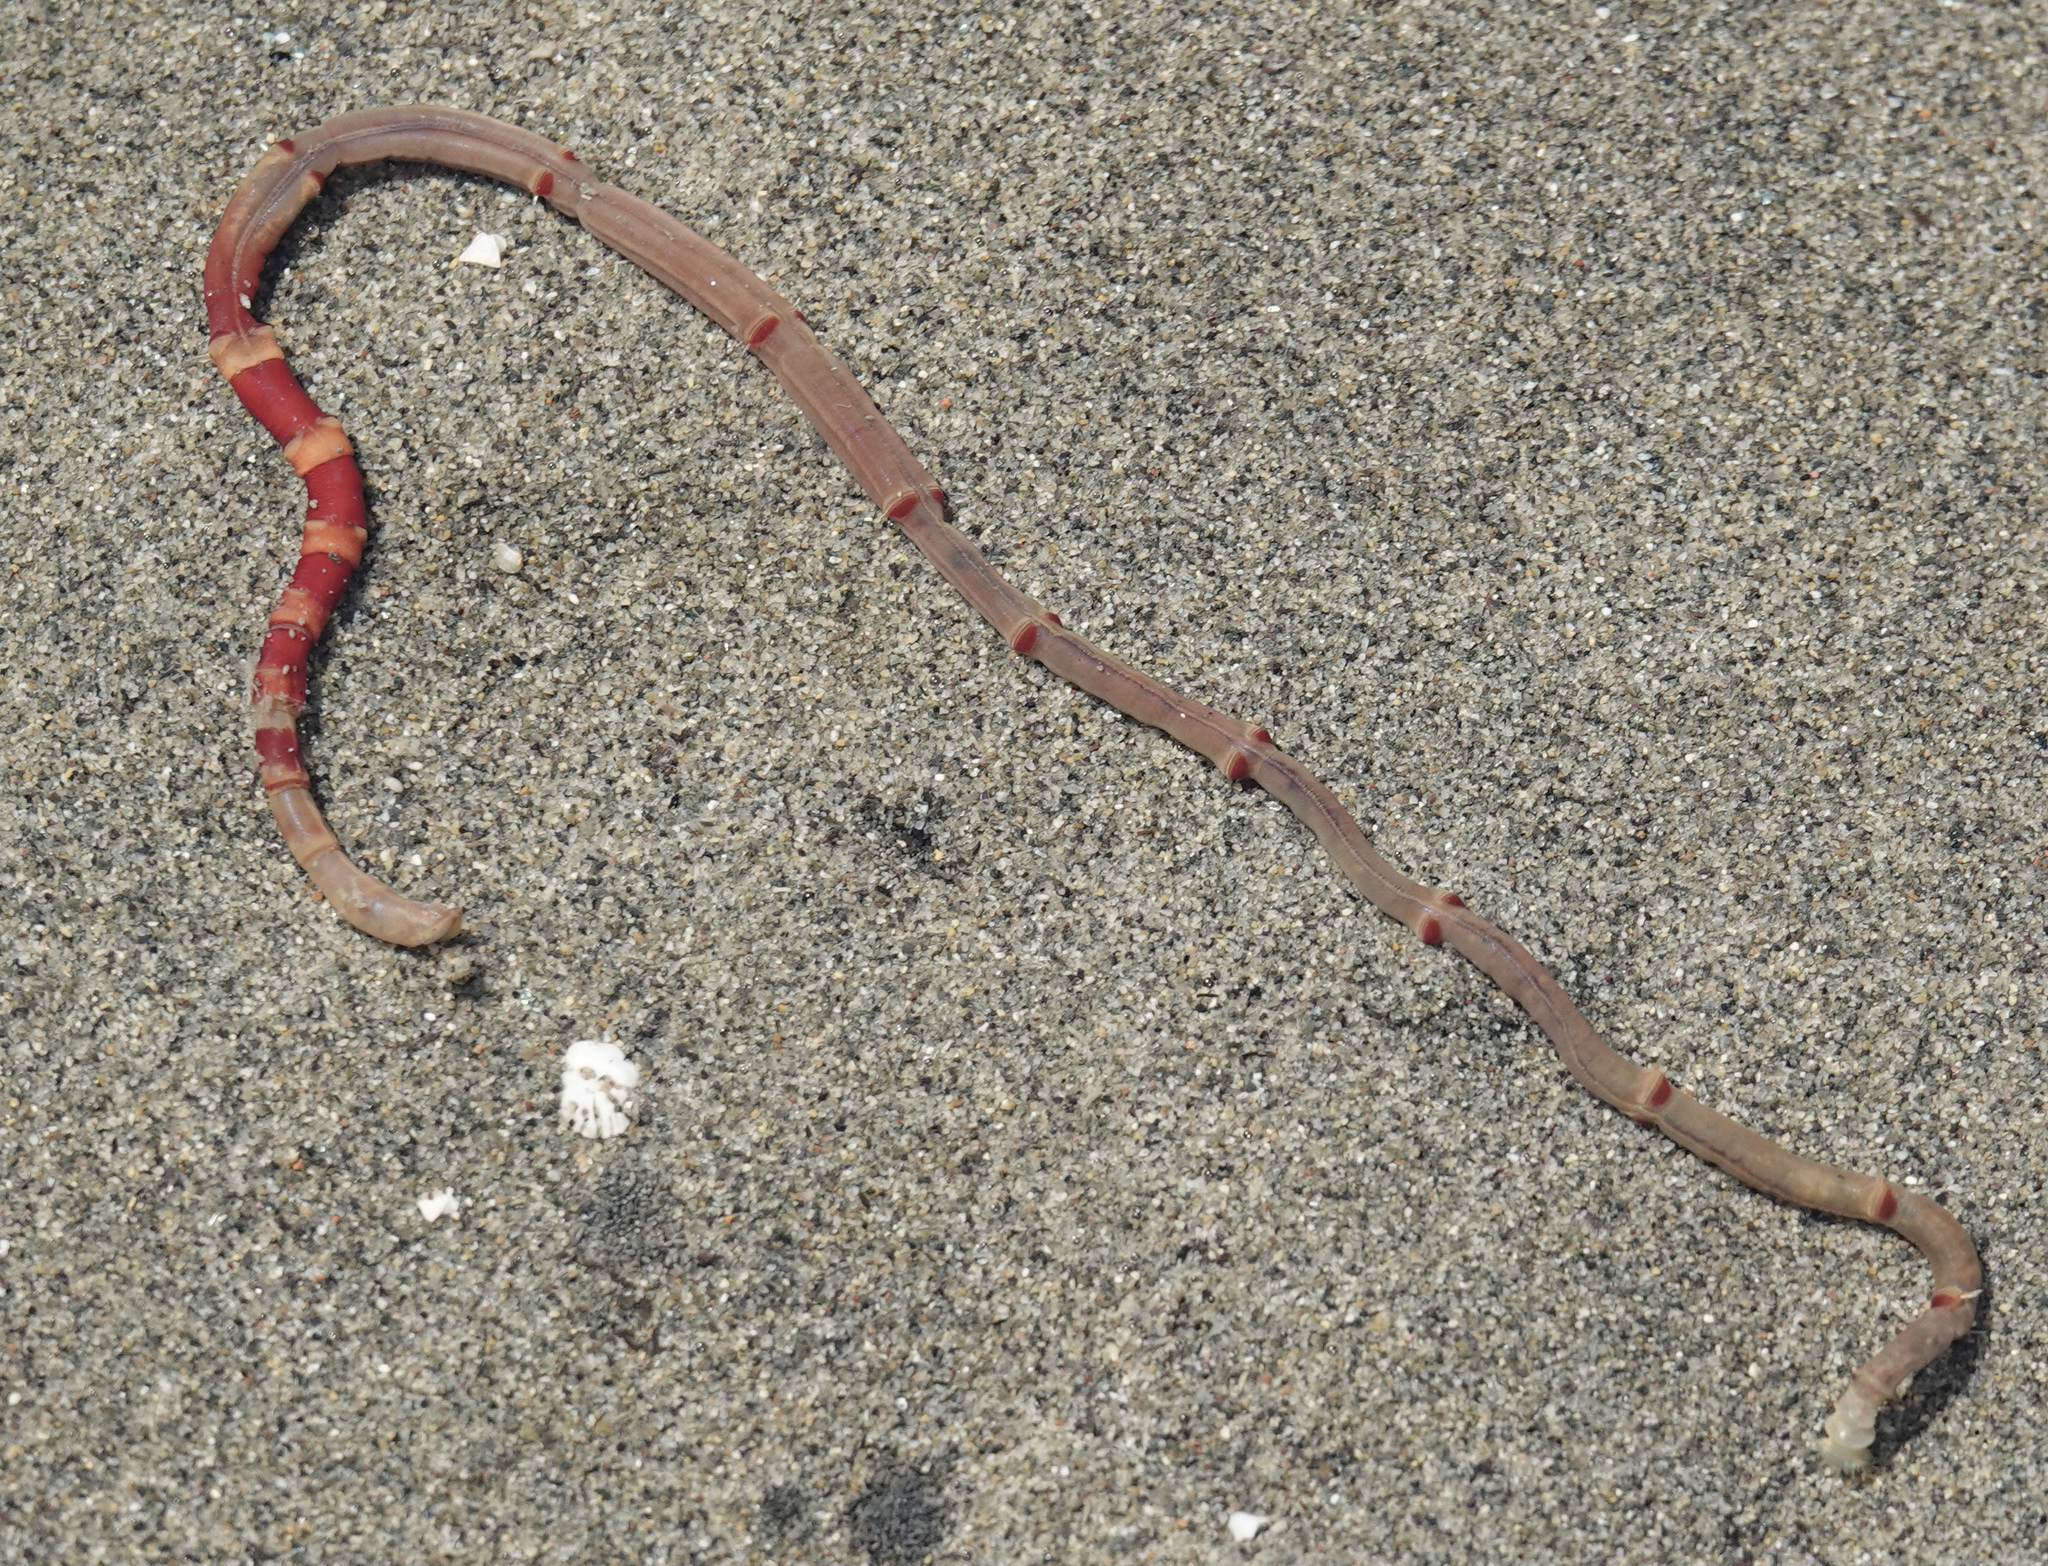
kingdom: Animalia
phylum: Annelida
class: Polychaeta
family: Maldanidae
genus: Axiothella
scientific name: Axiothella rubrocincta
